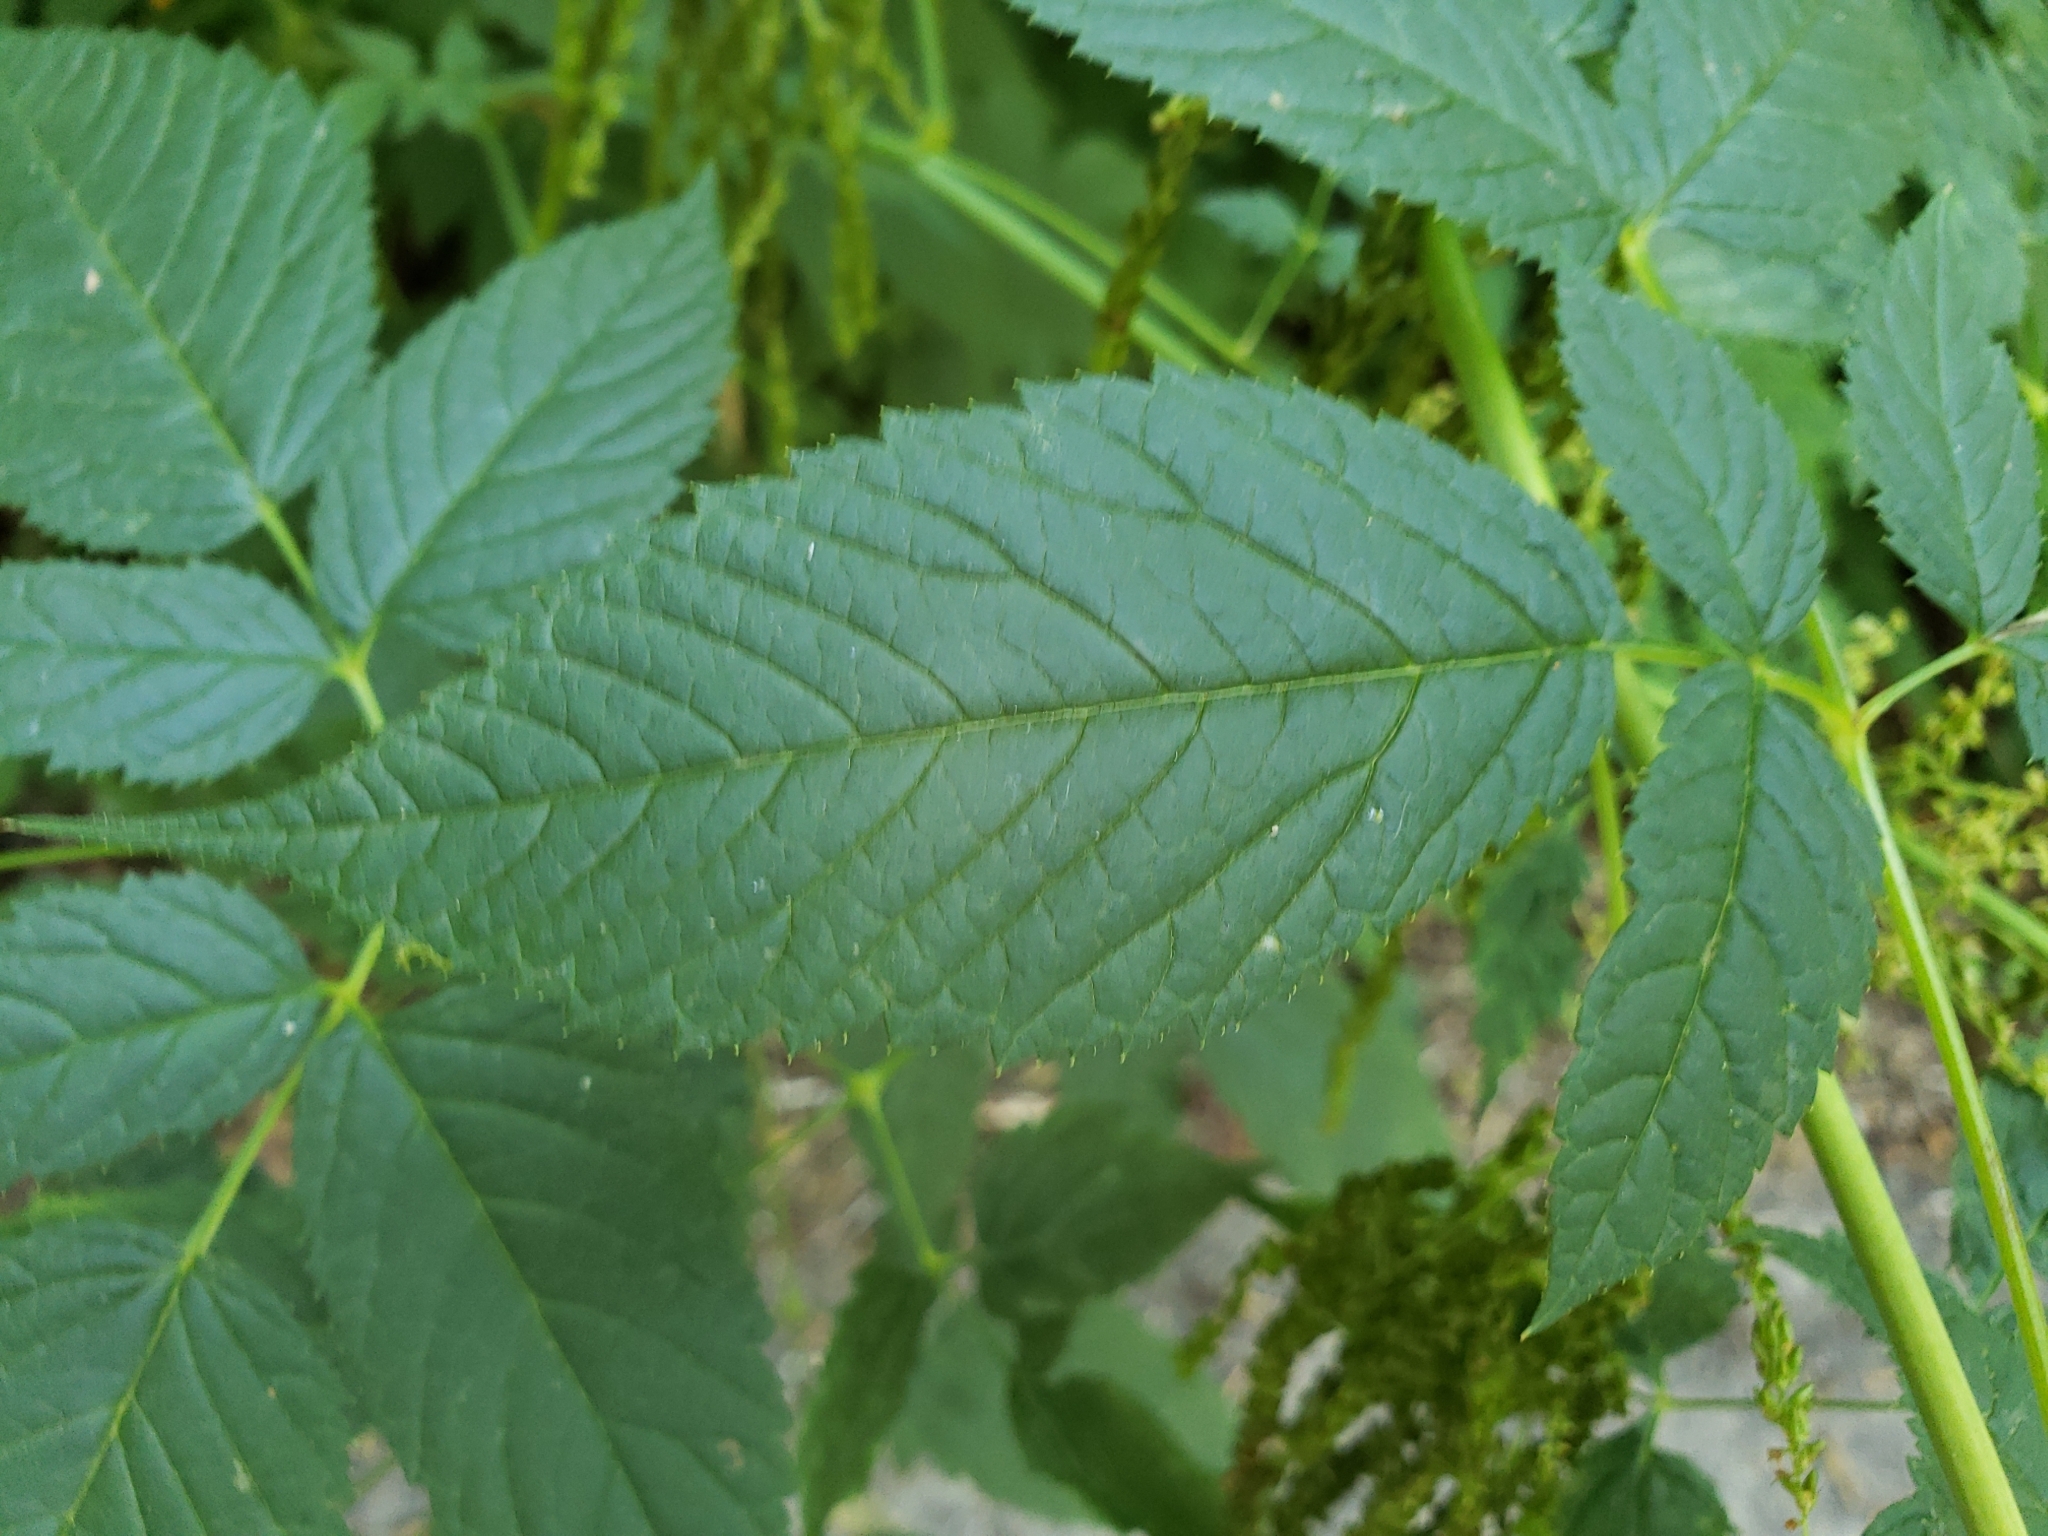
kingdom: Plantae
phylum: Tracheophyta
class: Magnoliopsida
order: Rosales
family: Rosaceae
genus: Aruncus
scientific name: Aruncus dioicus
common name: Buck's-beard
